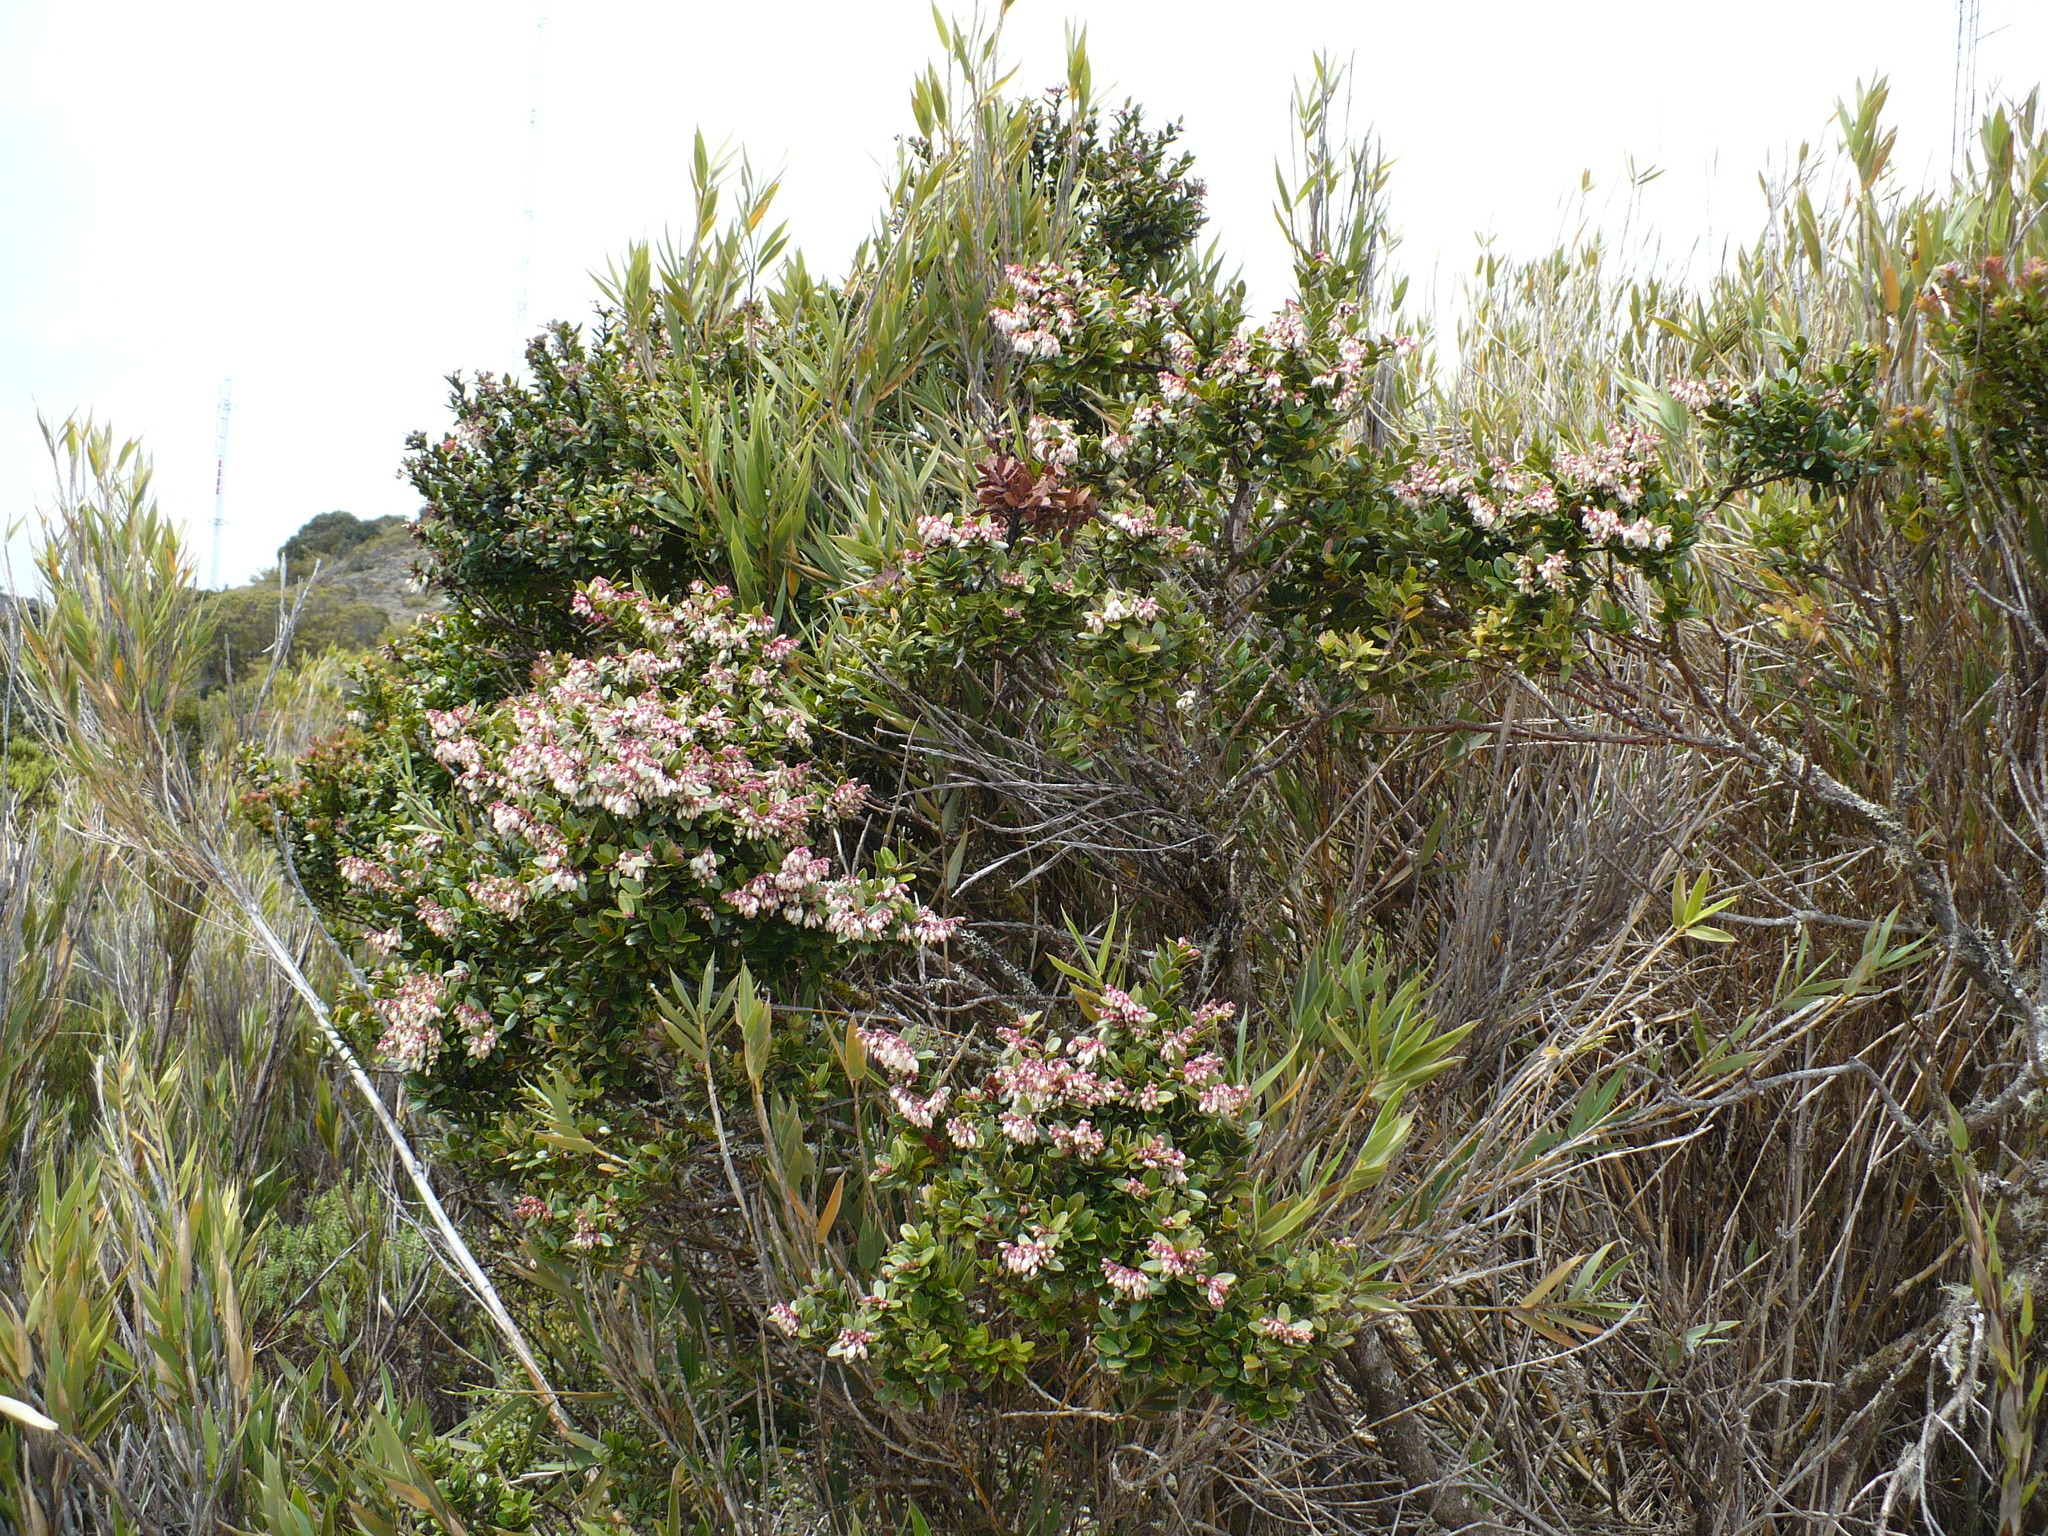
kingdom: Plantae
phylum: Tracheophyta
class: Magnoliopsida
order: Ericales
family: Ericaceae
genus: Vaccinium
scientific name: Vaccinium consanguineum
